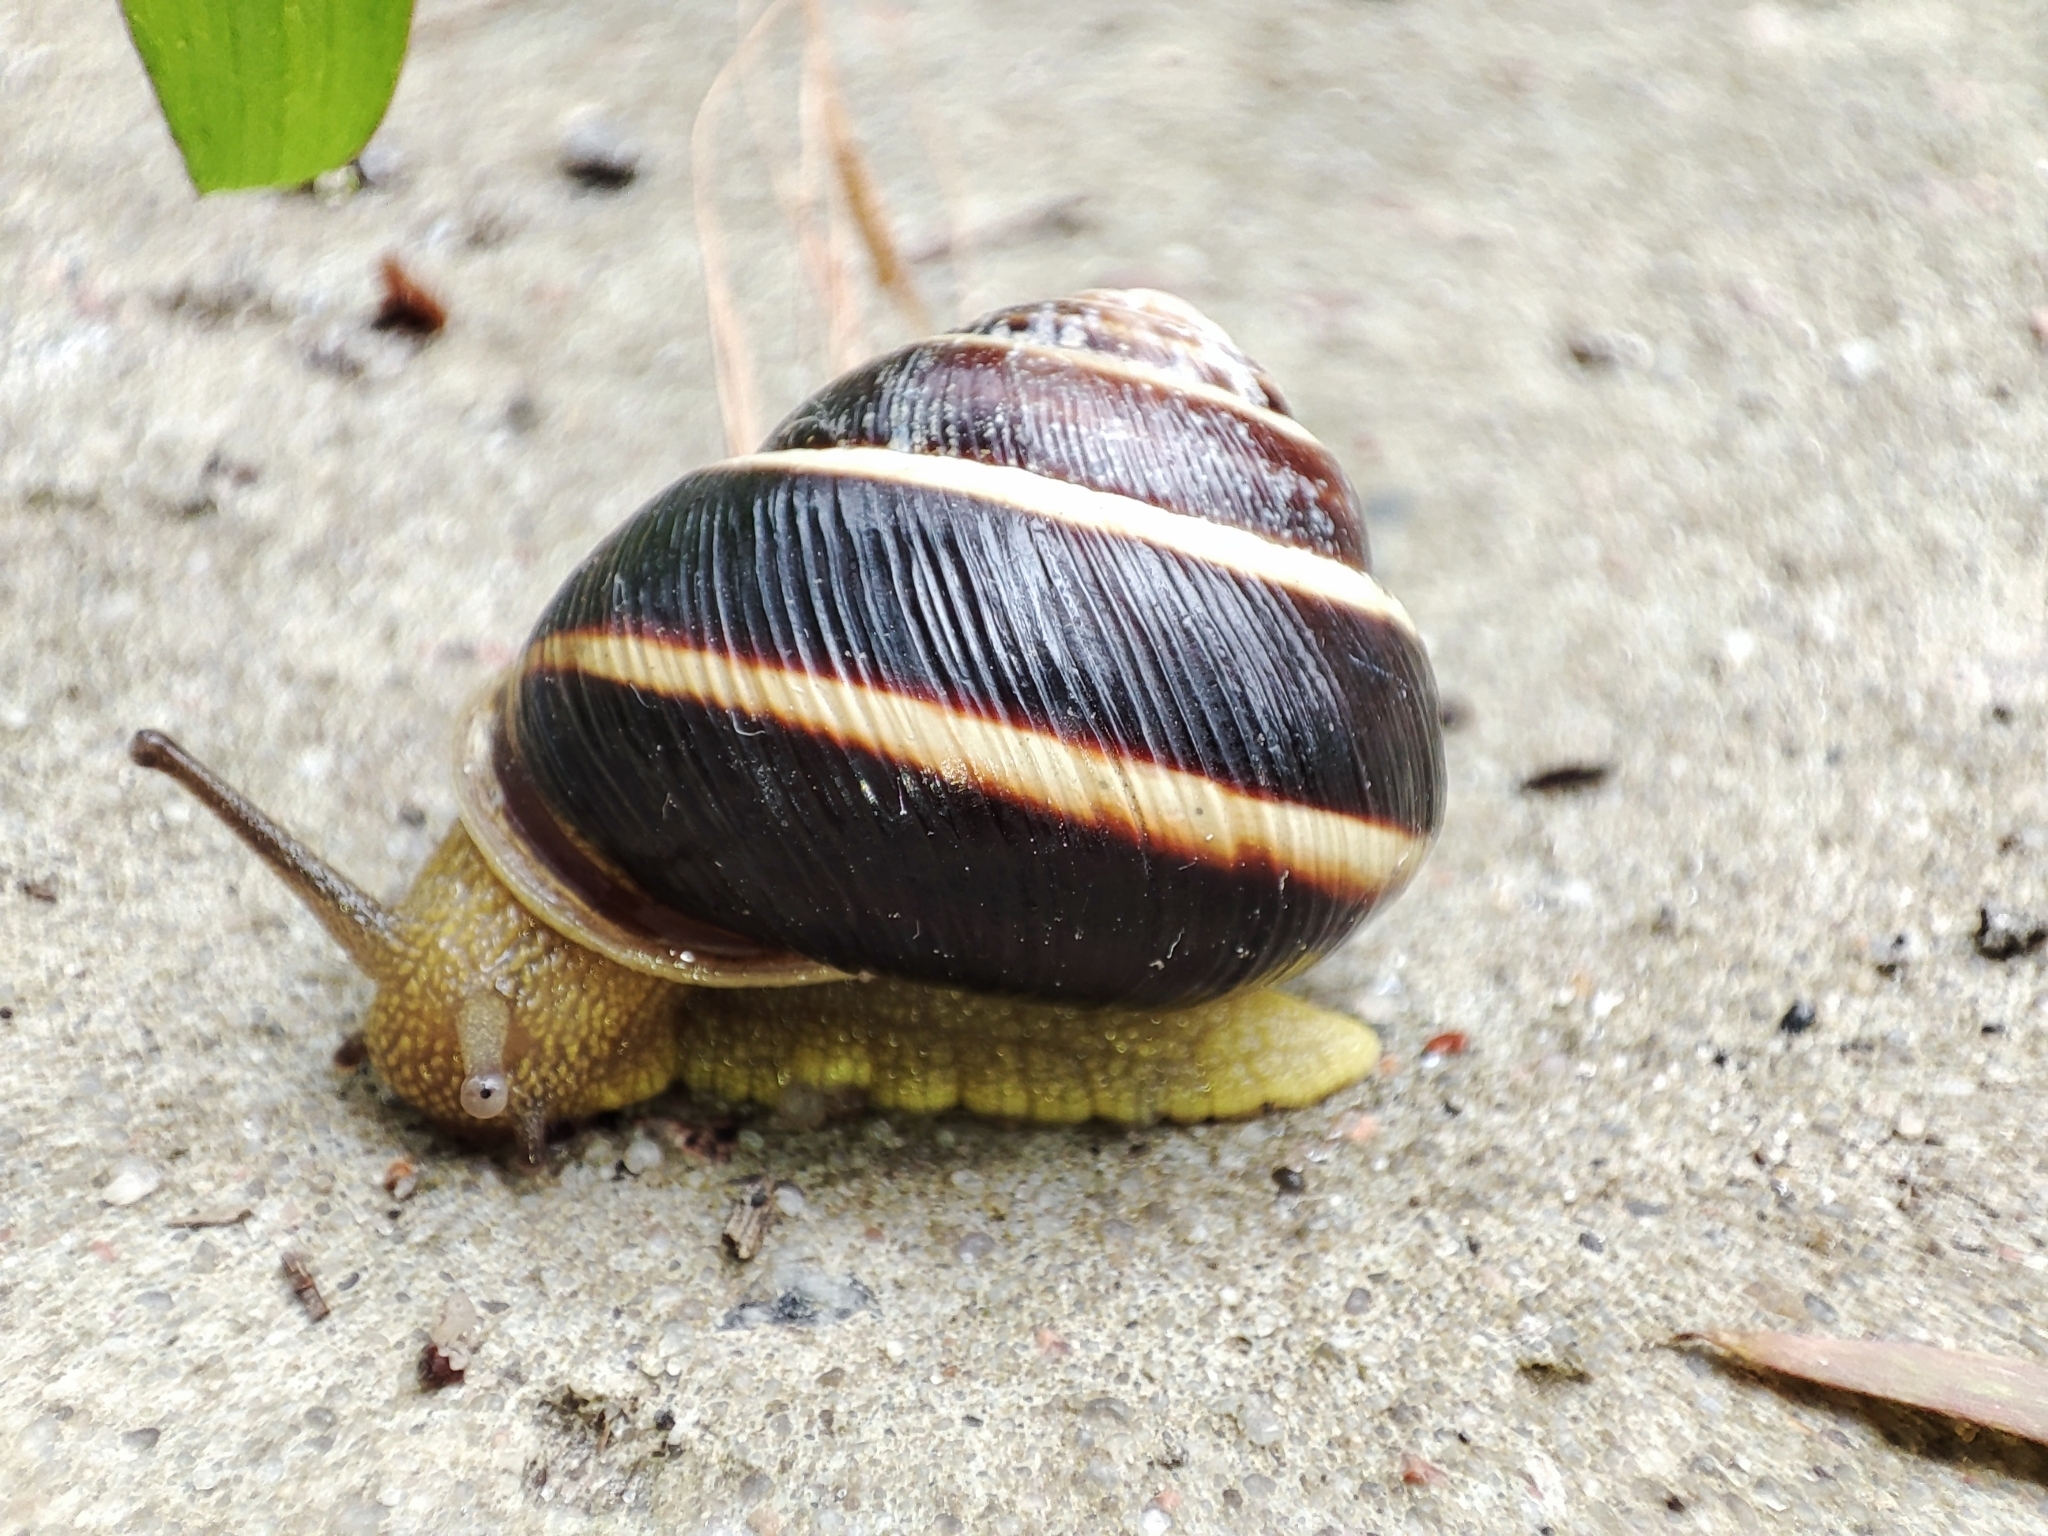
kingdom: Animalia
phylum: Mollusca
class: Gastropoda
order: Stylommatophora
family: Helicidae
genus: Caucasotachea
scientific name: Caucasotachea vindobonensis
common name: European helicid land snail
